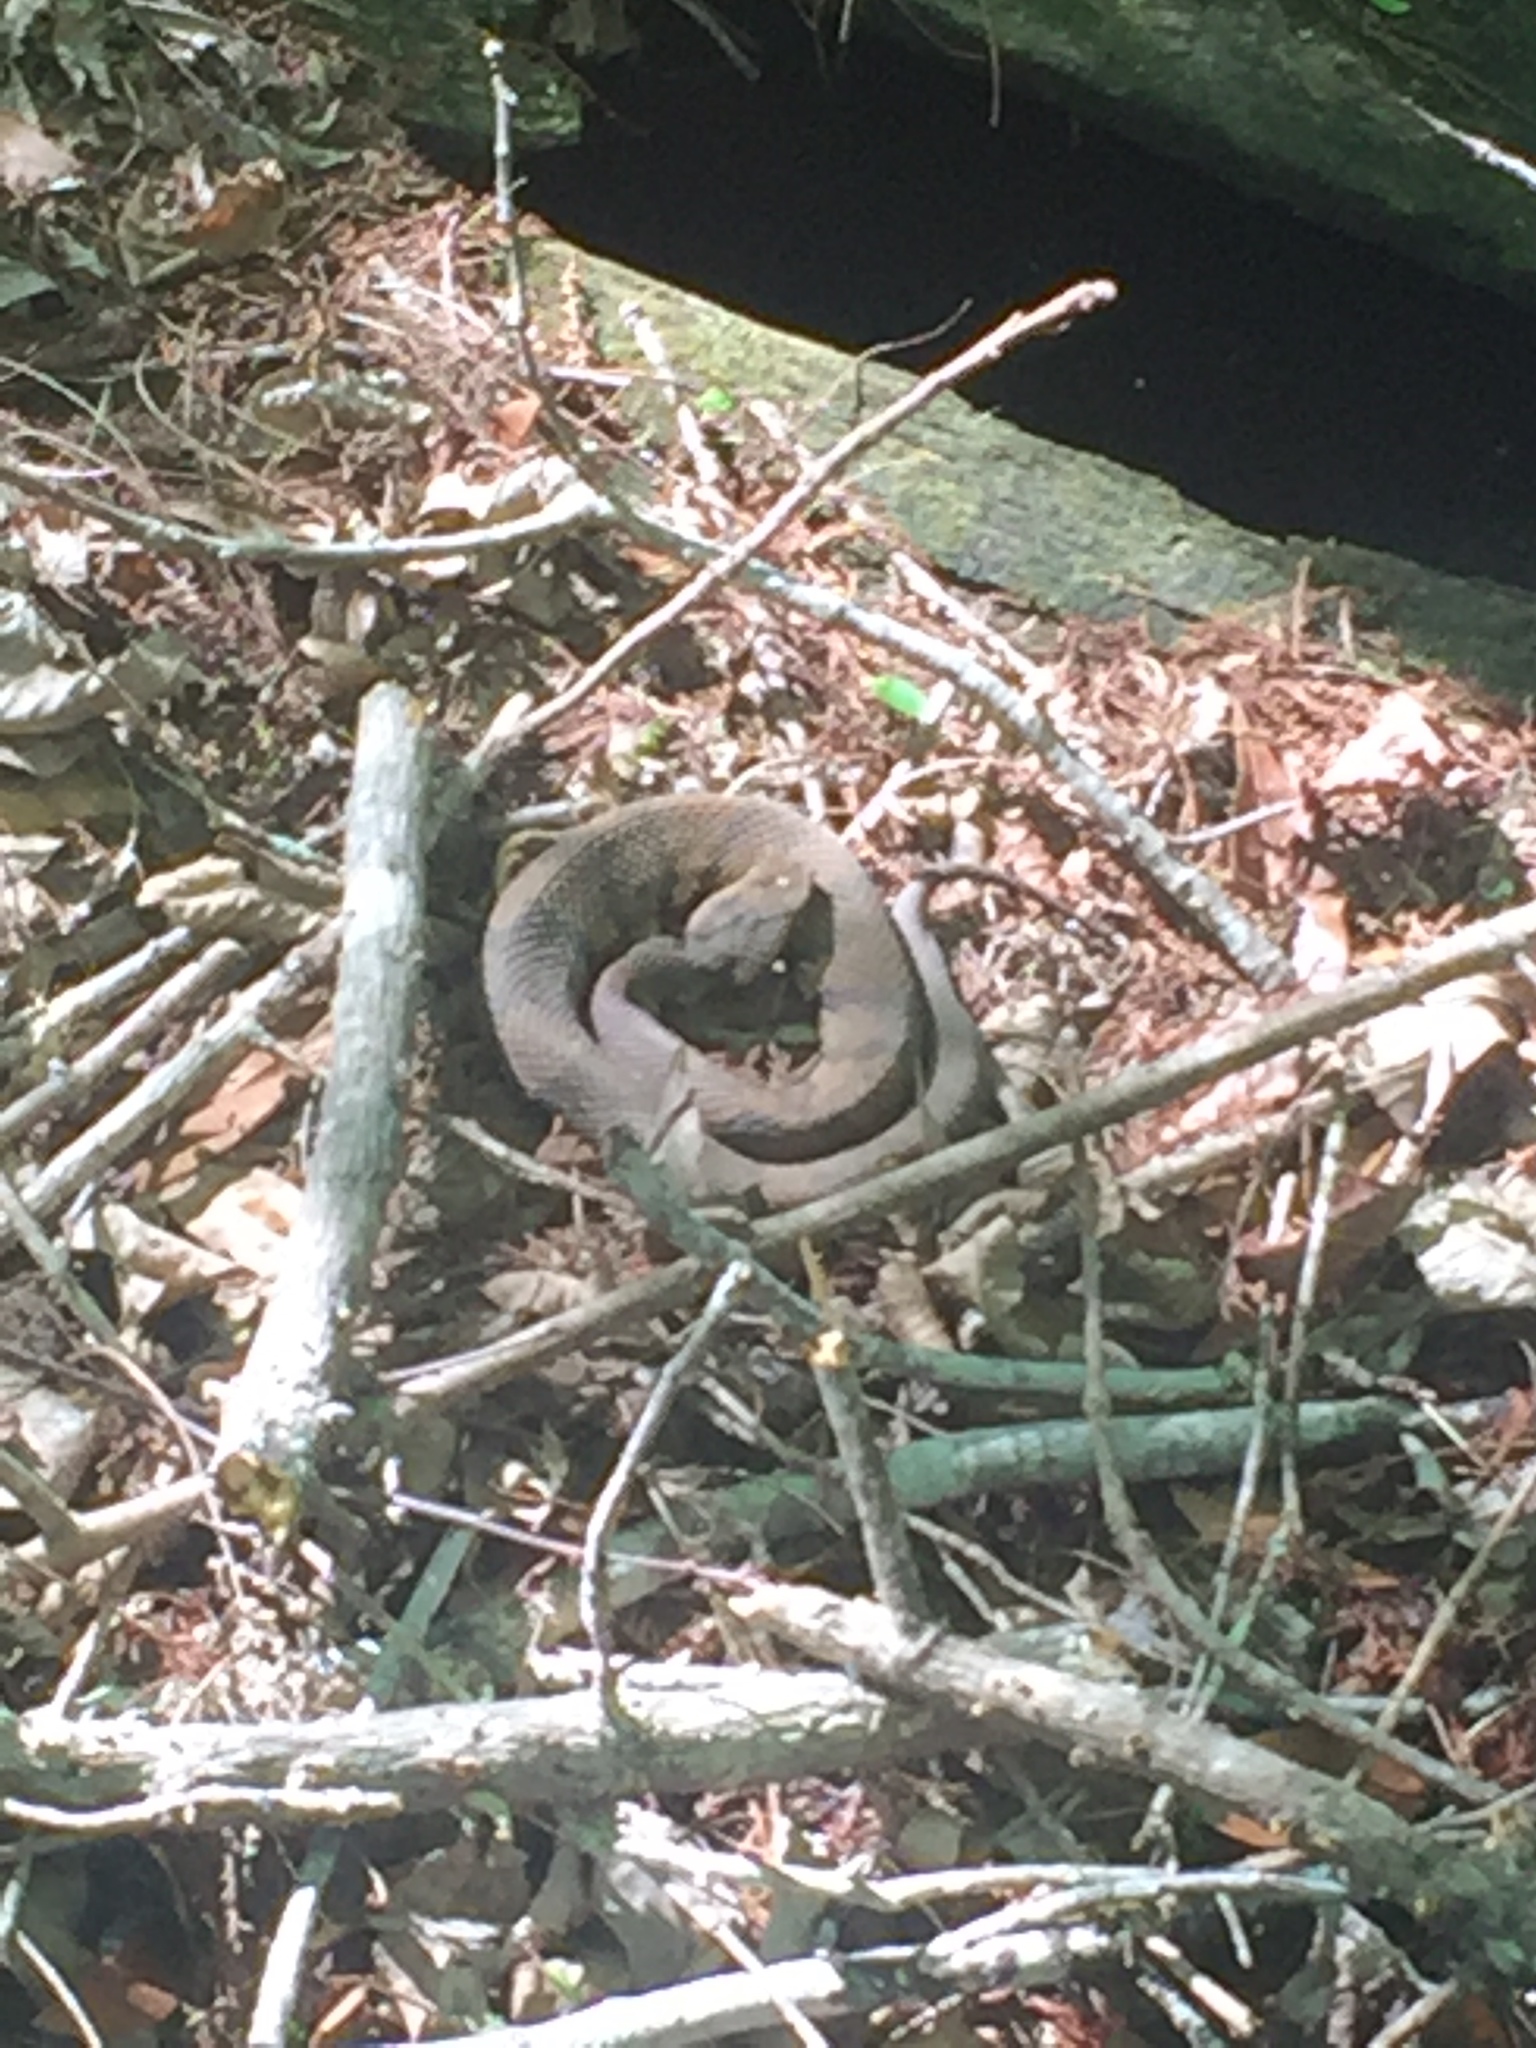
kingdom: Animalia
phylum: Chordata
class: Squamata
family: Viperidae
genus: Agkistrodon
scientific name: Agkistrodon piscivorus
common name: Cottonmouth
